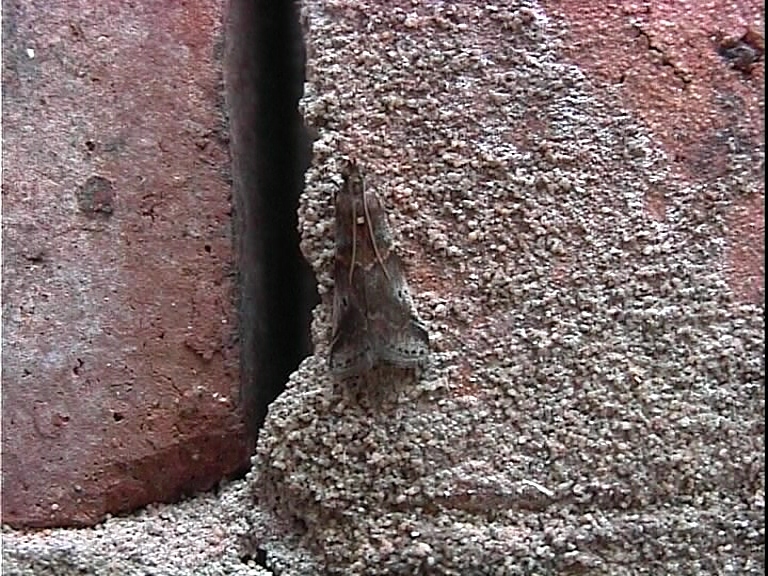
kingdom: Animalia
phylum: Arthropoda
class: Insecta
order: Lepidoptera
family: Pyralidae
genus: Acrobasis
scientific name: Acrobasis suavella
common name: Pyralid moth
